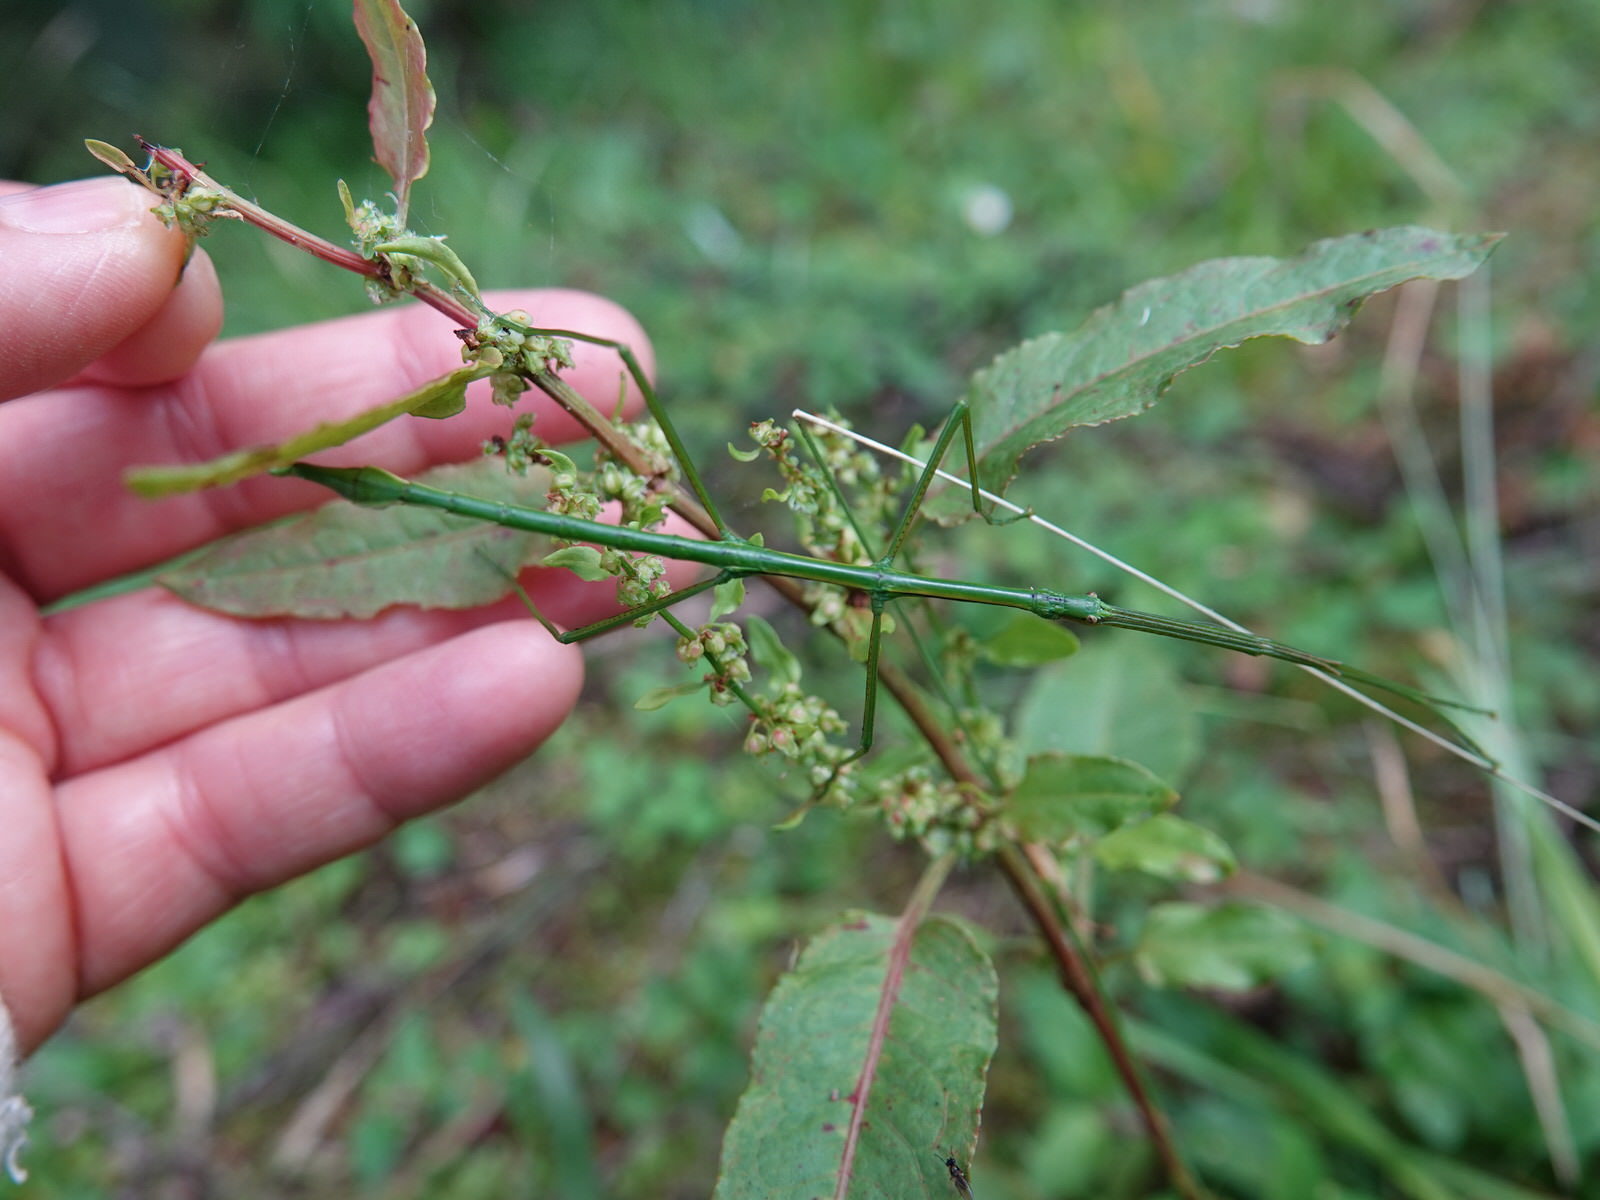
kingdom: Animalia
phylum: Arthropoda
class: Insecta
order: Phasmida
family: Phasmatidae
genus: Clitarchus
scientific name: Clitarchus hookeri
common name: Smooth stick insect
